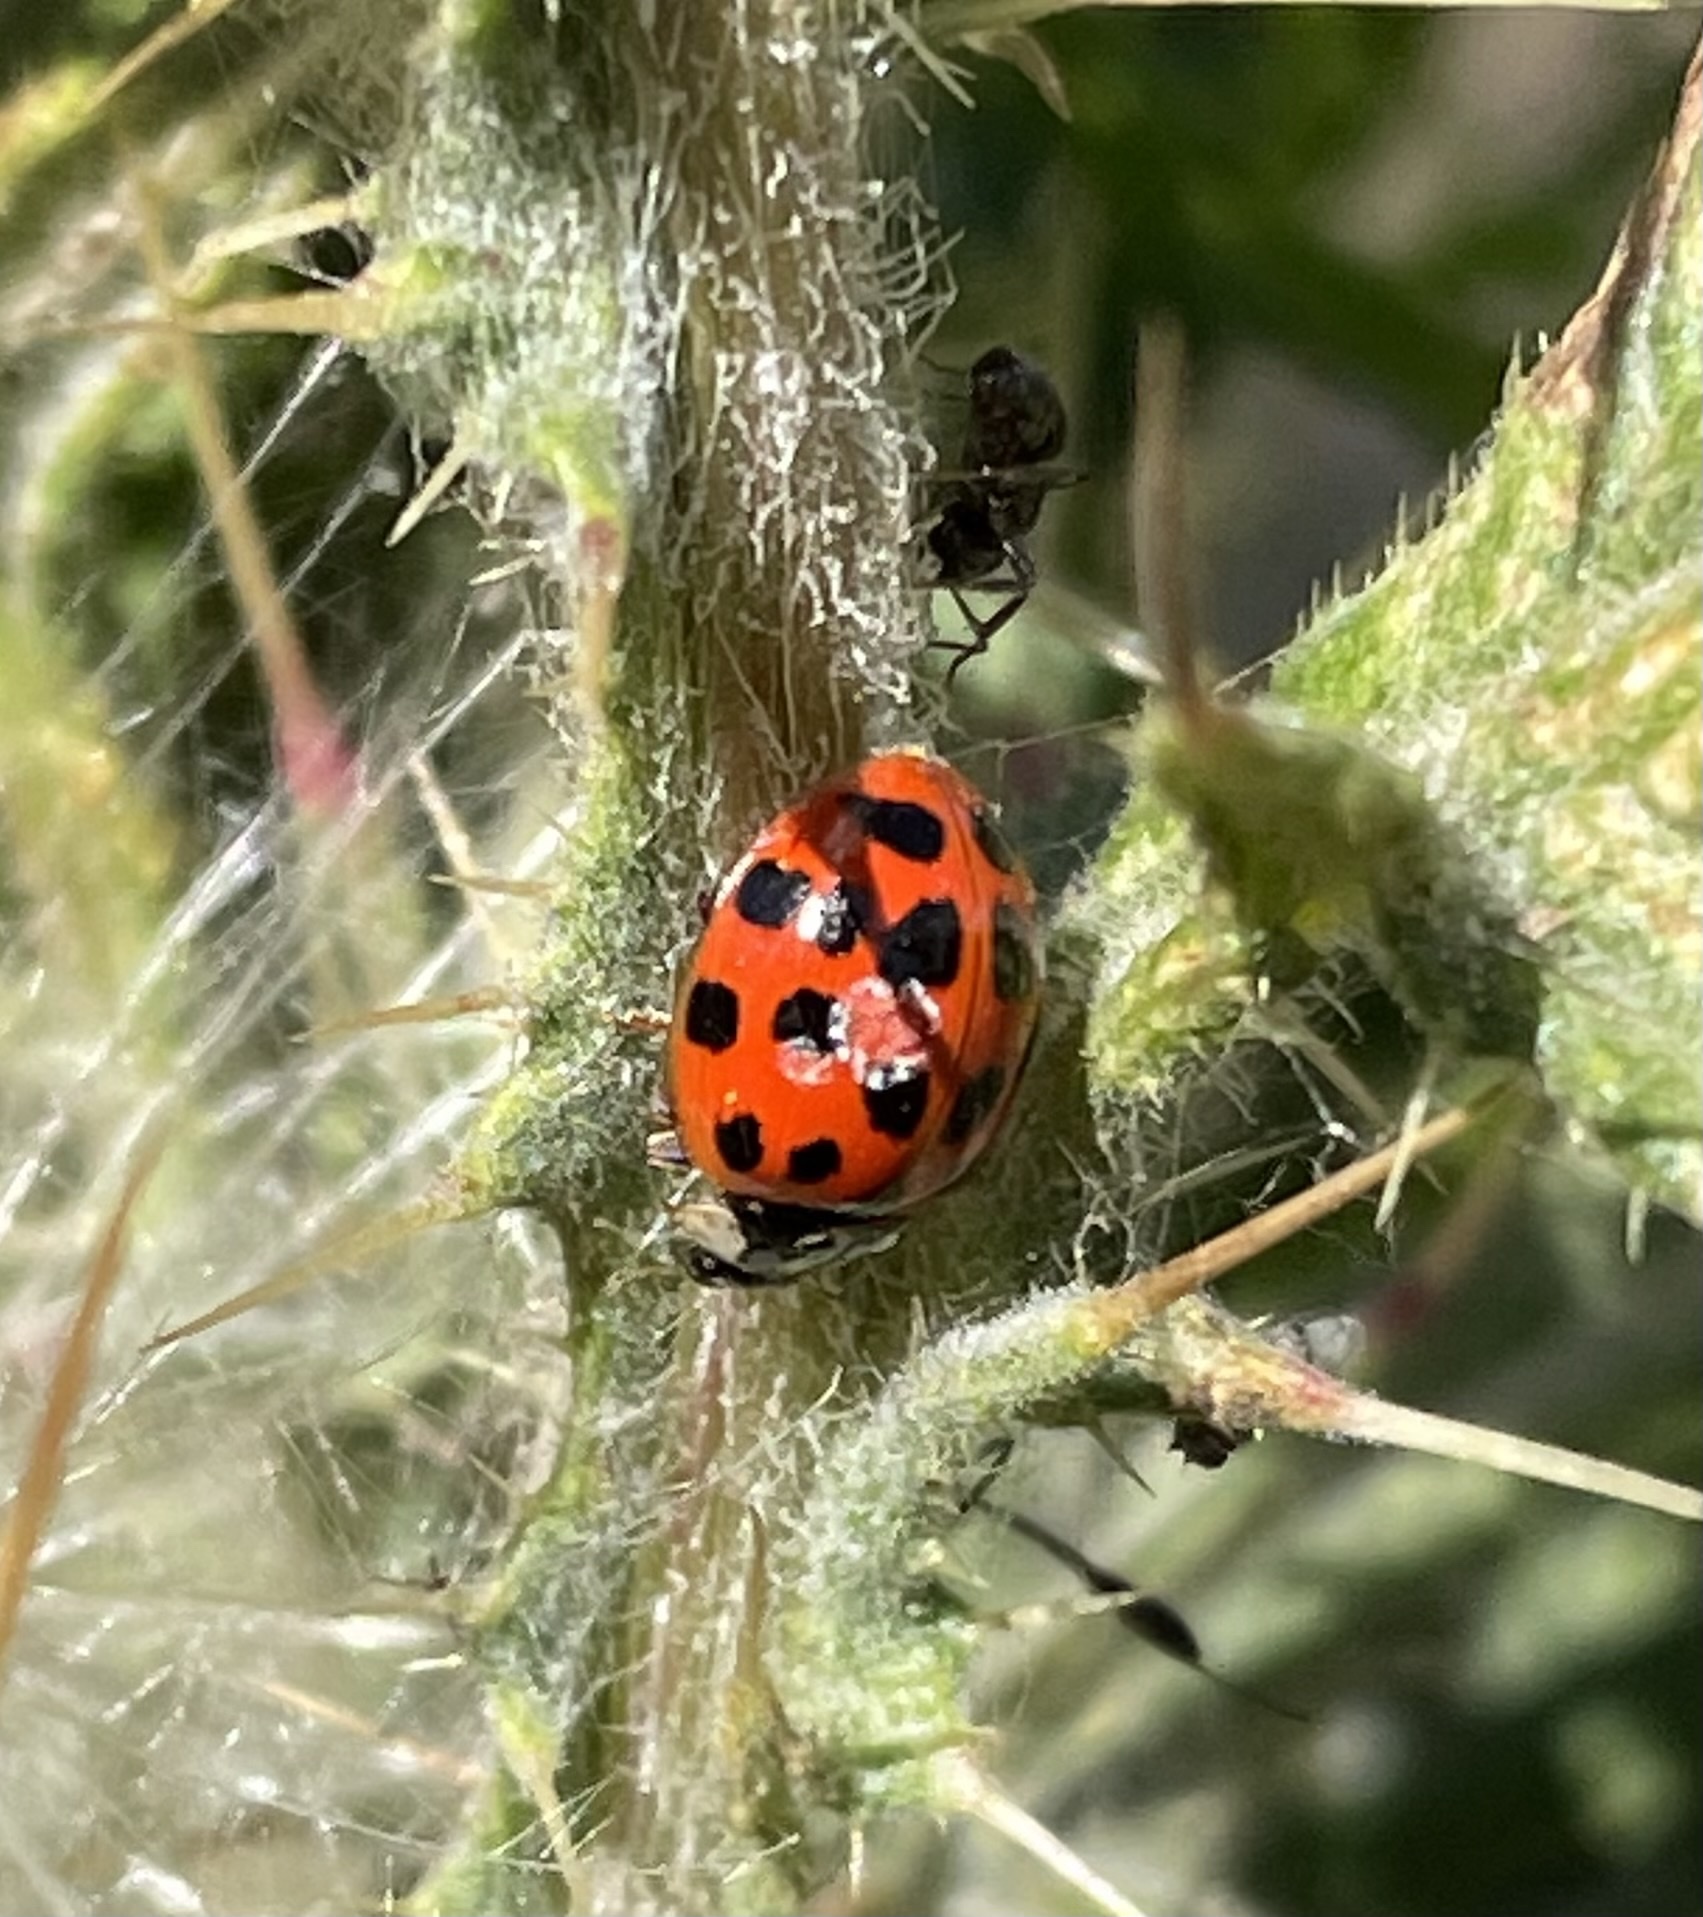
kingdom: Animalia
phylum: Arthropoda
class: Insecta
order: Coleoptera
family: Coccinellidae
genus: Harmonia
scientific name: Harmonia axyridis
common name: Harlequin ladybird
